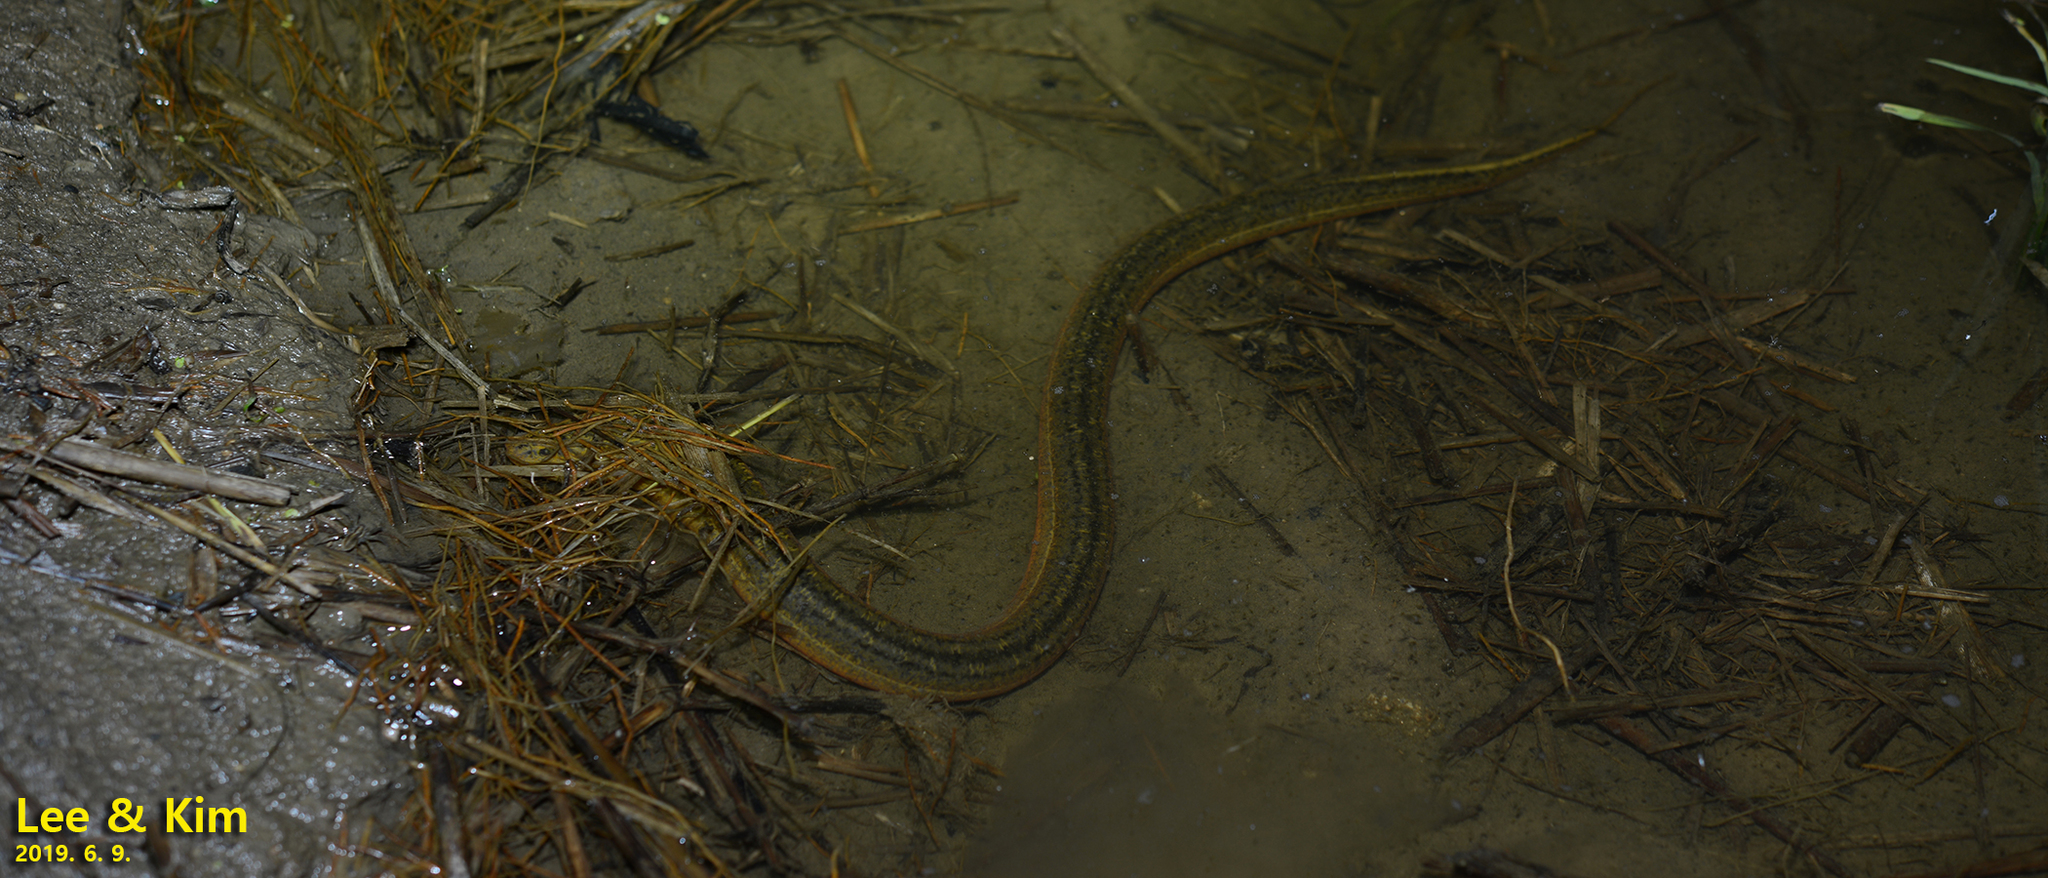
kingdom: Animalia
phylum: Chordata
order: Synbranchiformes
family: Synbranchidae
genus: Monopterus
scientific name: Monopterus albus
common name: Asian swamp eel
